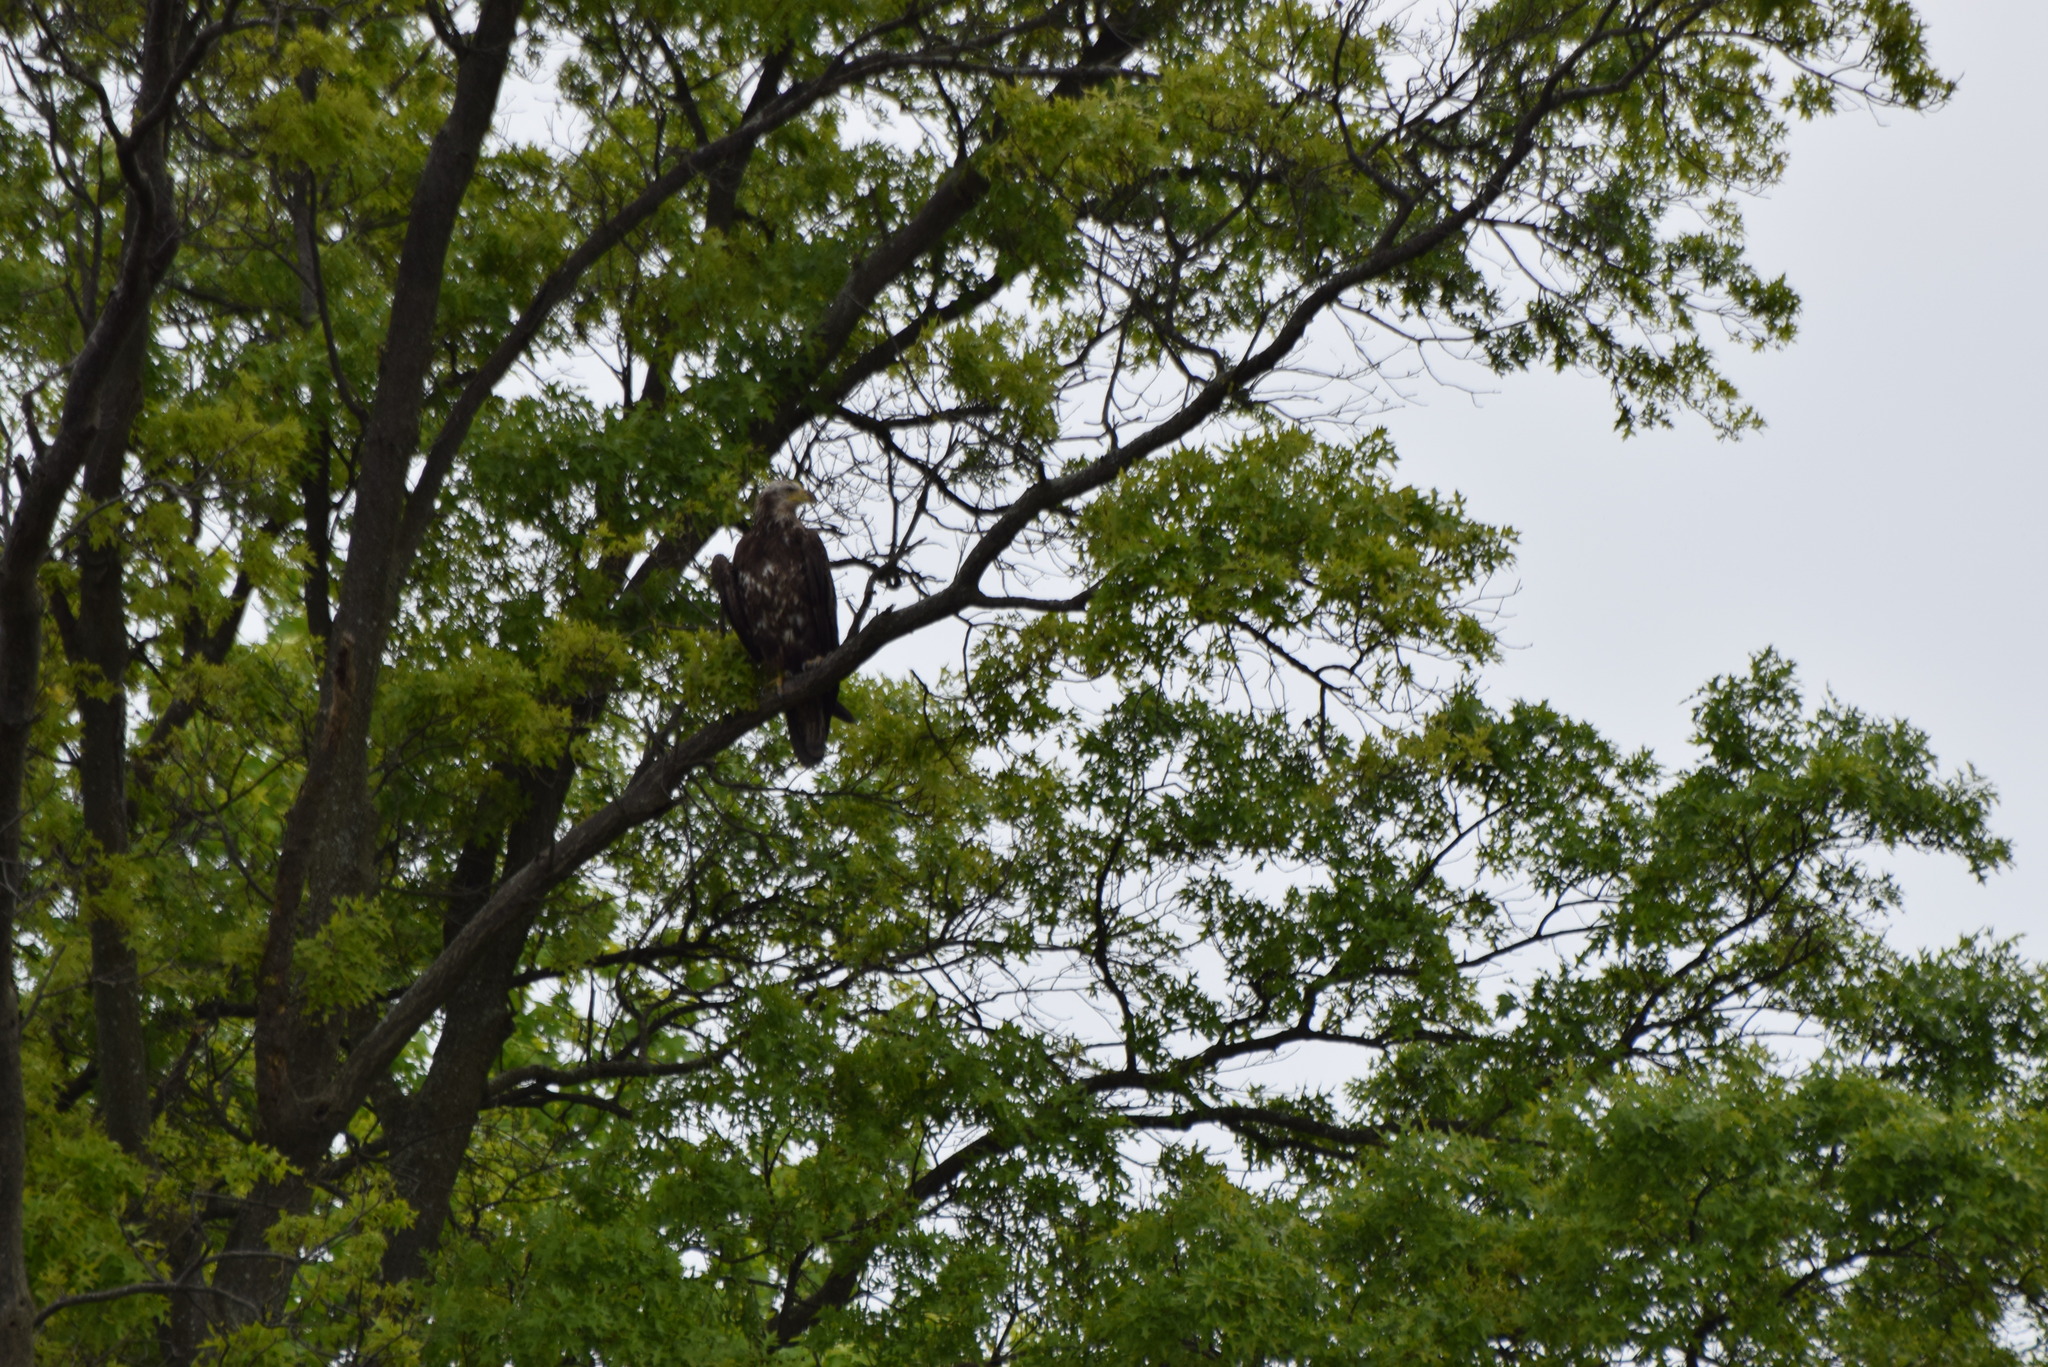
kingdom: Animalia
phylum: Chordata
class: Aves
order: Accipitriformes
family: Accipitridae
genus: Haliaeetus
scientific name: Haliaeetus leucocephalus
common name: Bald eagle
